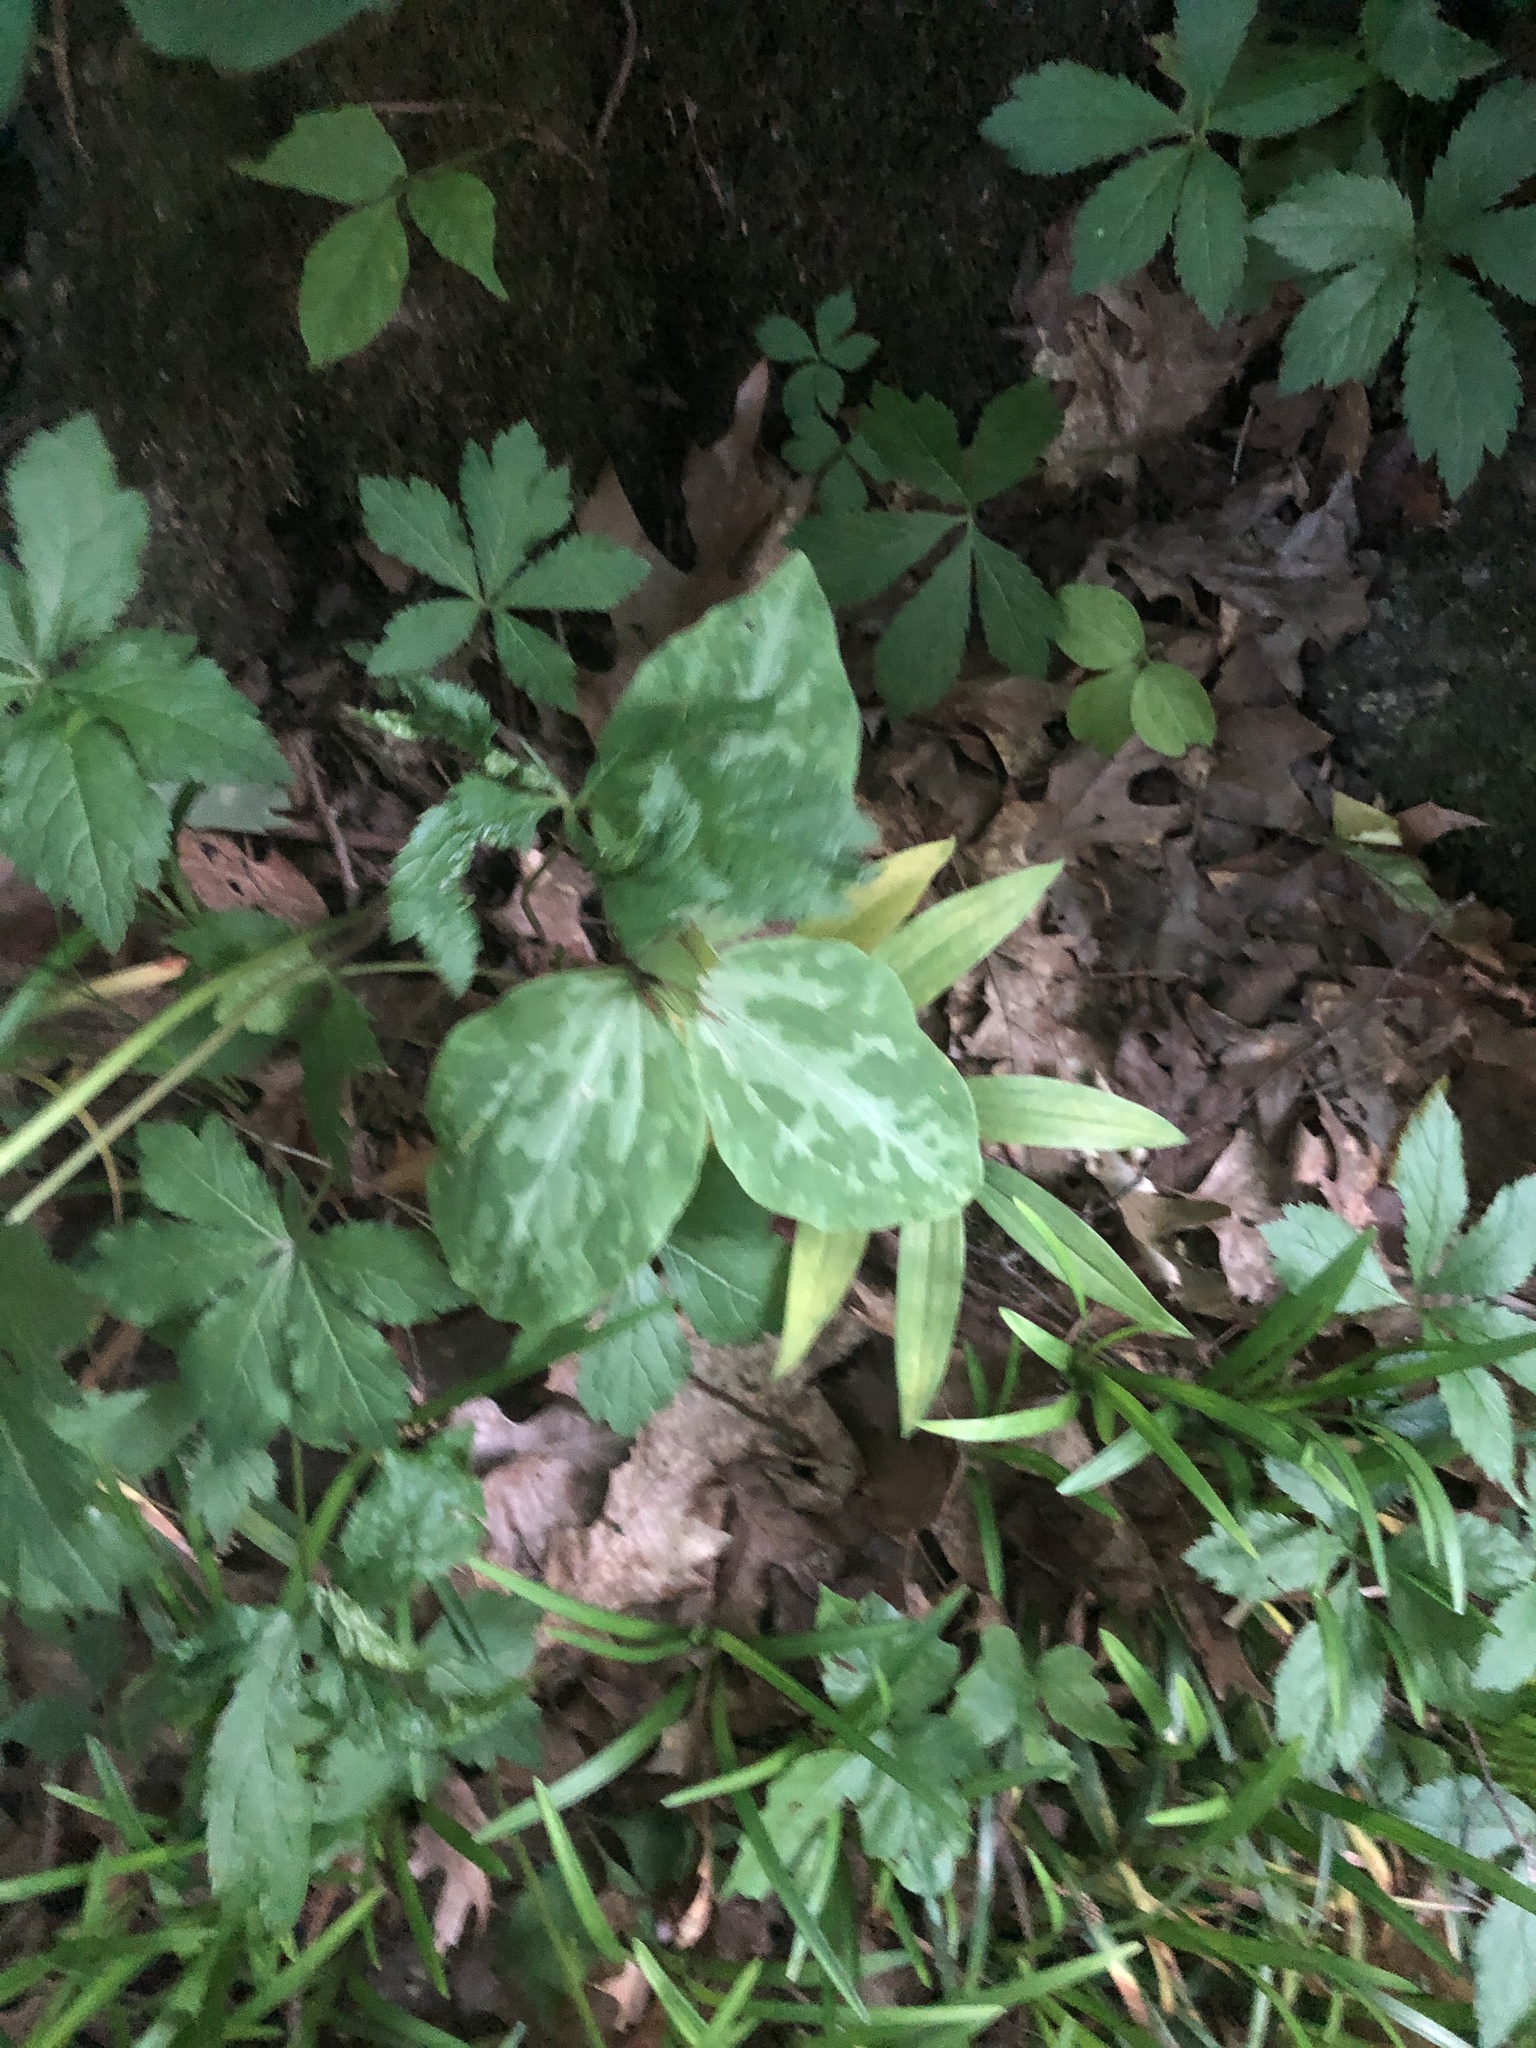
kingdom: Plantae
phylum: Tracheophyta
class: Liliopsida
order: Liliales
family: Melanthiaceae
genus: Trillium
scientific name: Trillium cuneatum
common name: Cuneate trillium
